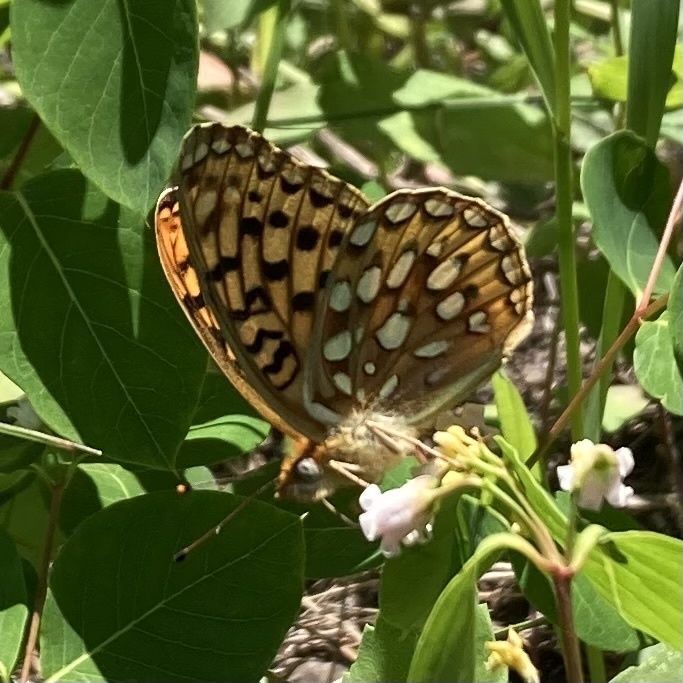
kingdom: Animalia
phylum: Arthropoda
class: Insecta
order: Lepidoptera
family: Nymphalidae
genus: Speyeria
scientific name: Speyeria zerene
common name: Zerene fritillary
